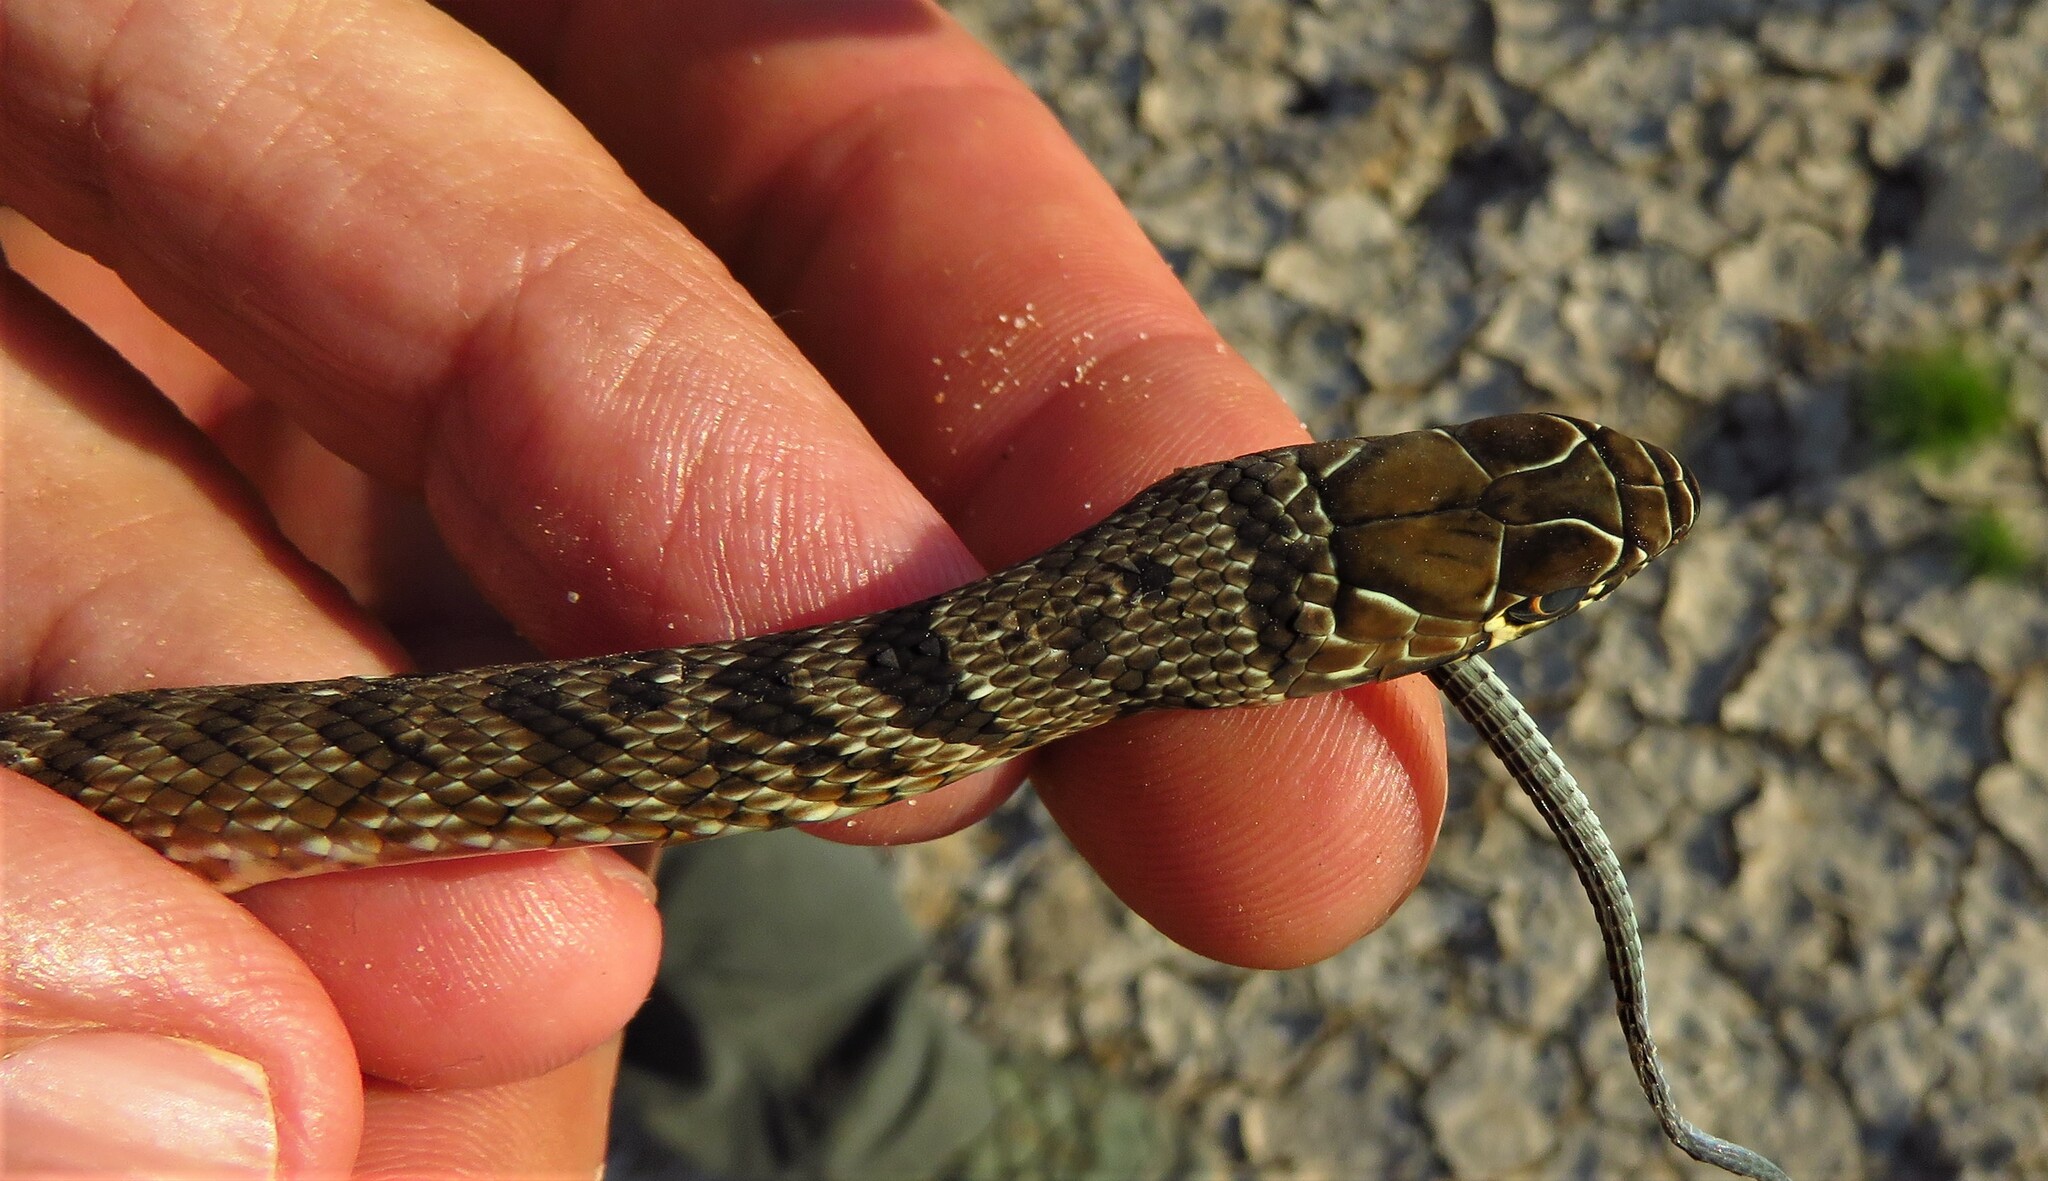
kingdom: Animalia
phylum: Chordata
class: Squamata
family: Colubridae
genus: Masticophis
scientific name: Masticophis flagellum
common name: Coachwhip
